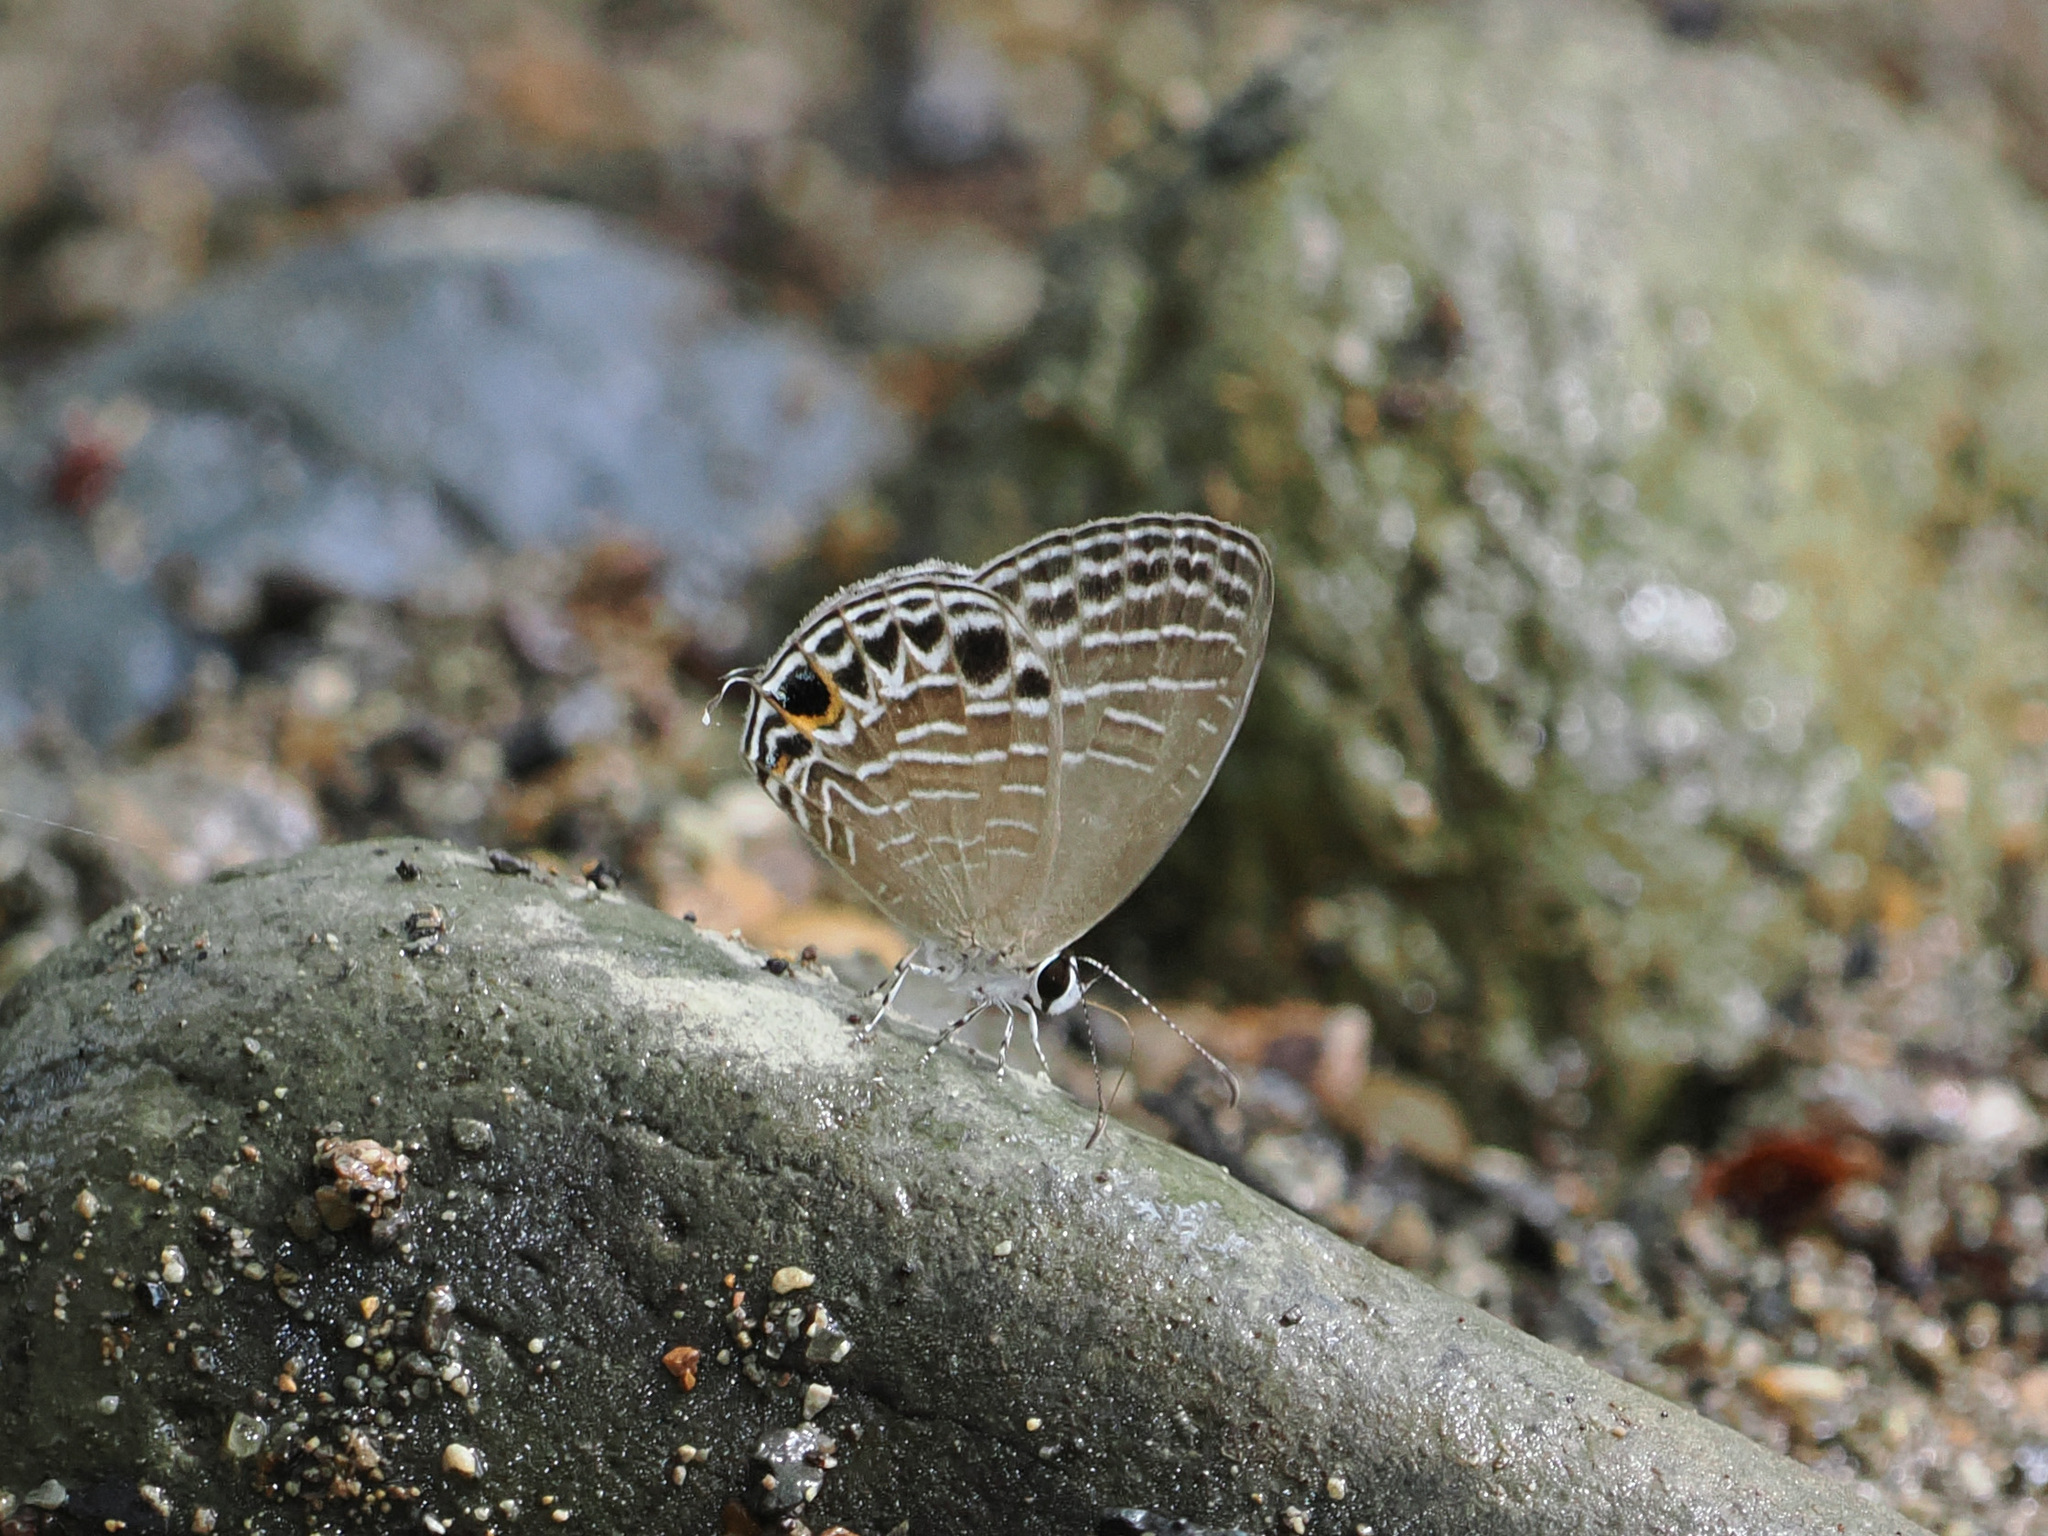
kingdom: Animalia
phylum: Arthropoda
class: Insecta
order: Lepidoptera
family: Lycaenidae
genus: Jamides
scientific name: Jamides aratus
